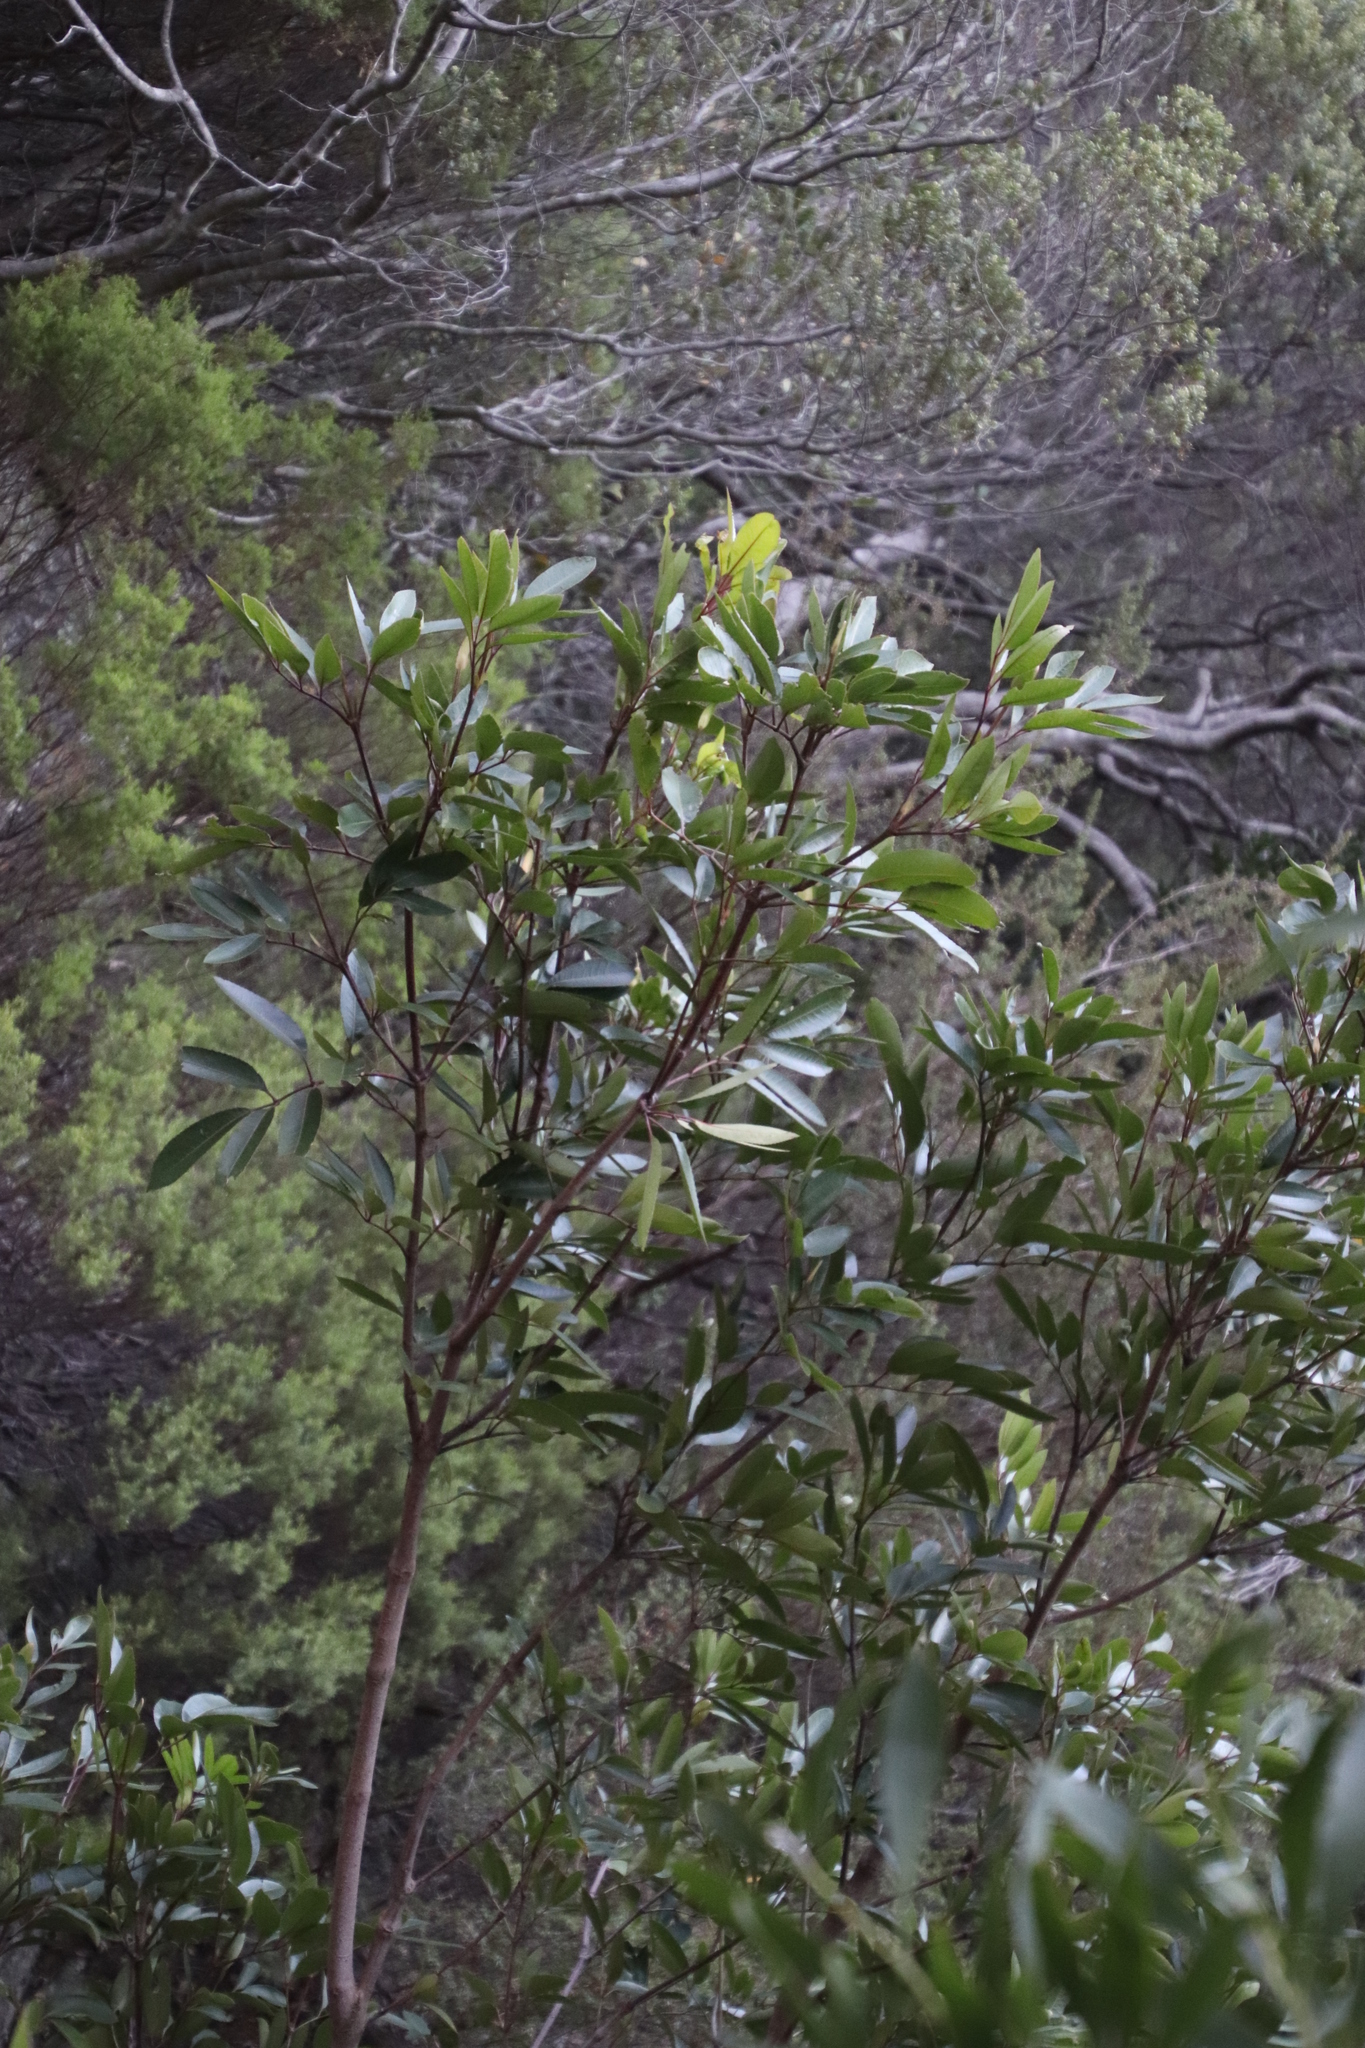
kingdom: Plantae
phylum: Tracheophyta
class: Magnoliopsida
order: Oxalidales
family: Cunoniaceae
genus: Cunonia
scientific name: Cunonia capensis
